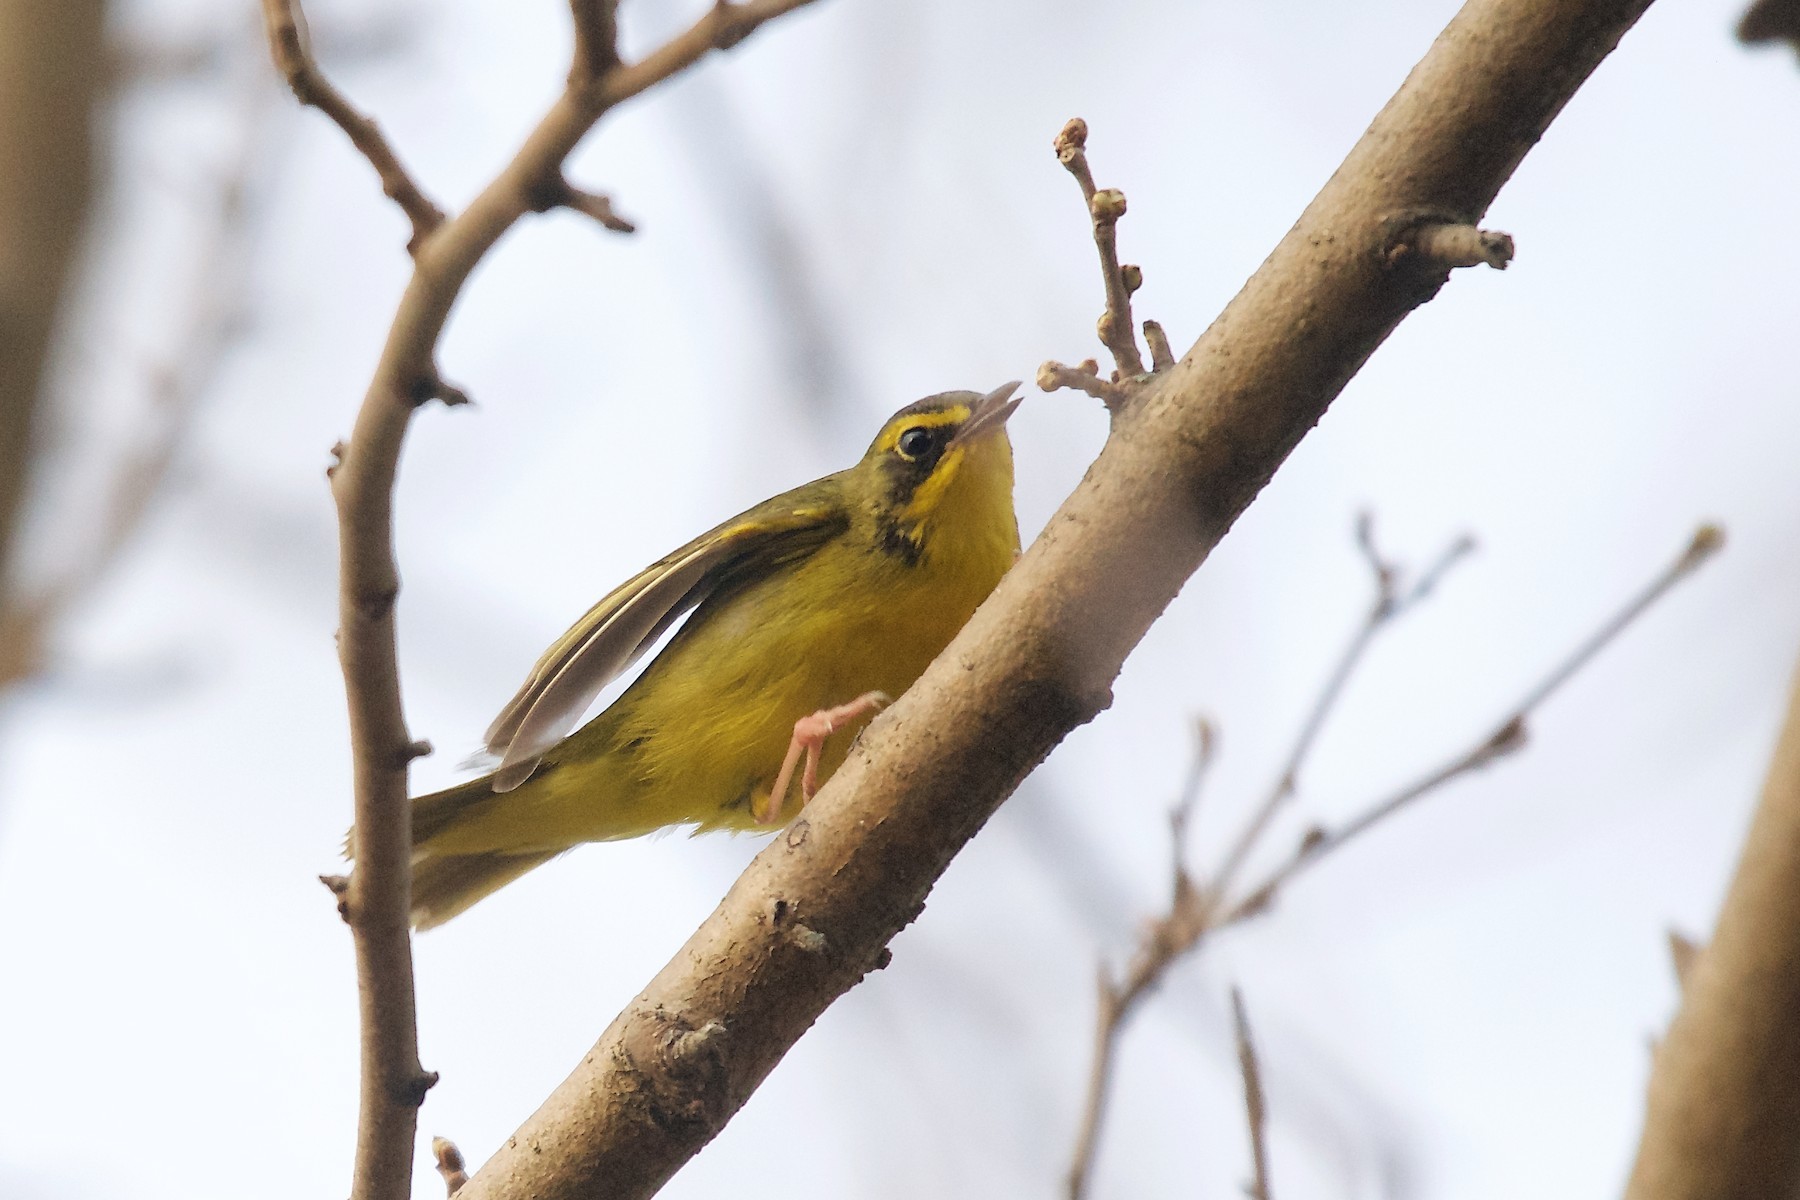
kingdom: Animalia
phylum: Chordata
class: Aves
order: Passeriformes
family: Parulidae
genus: Geothlypis
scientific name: Geothlypis formosa
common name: Kentucky warbler
